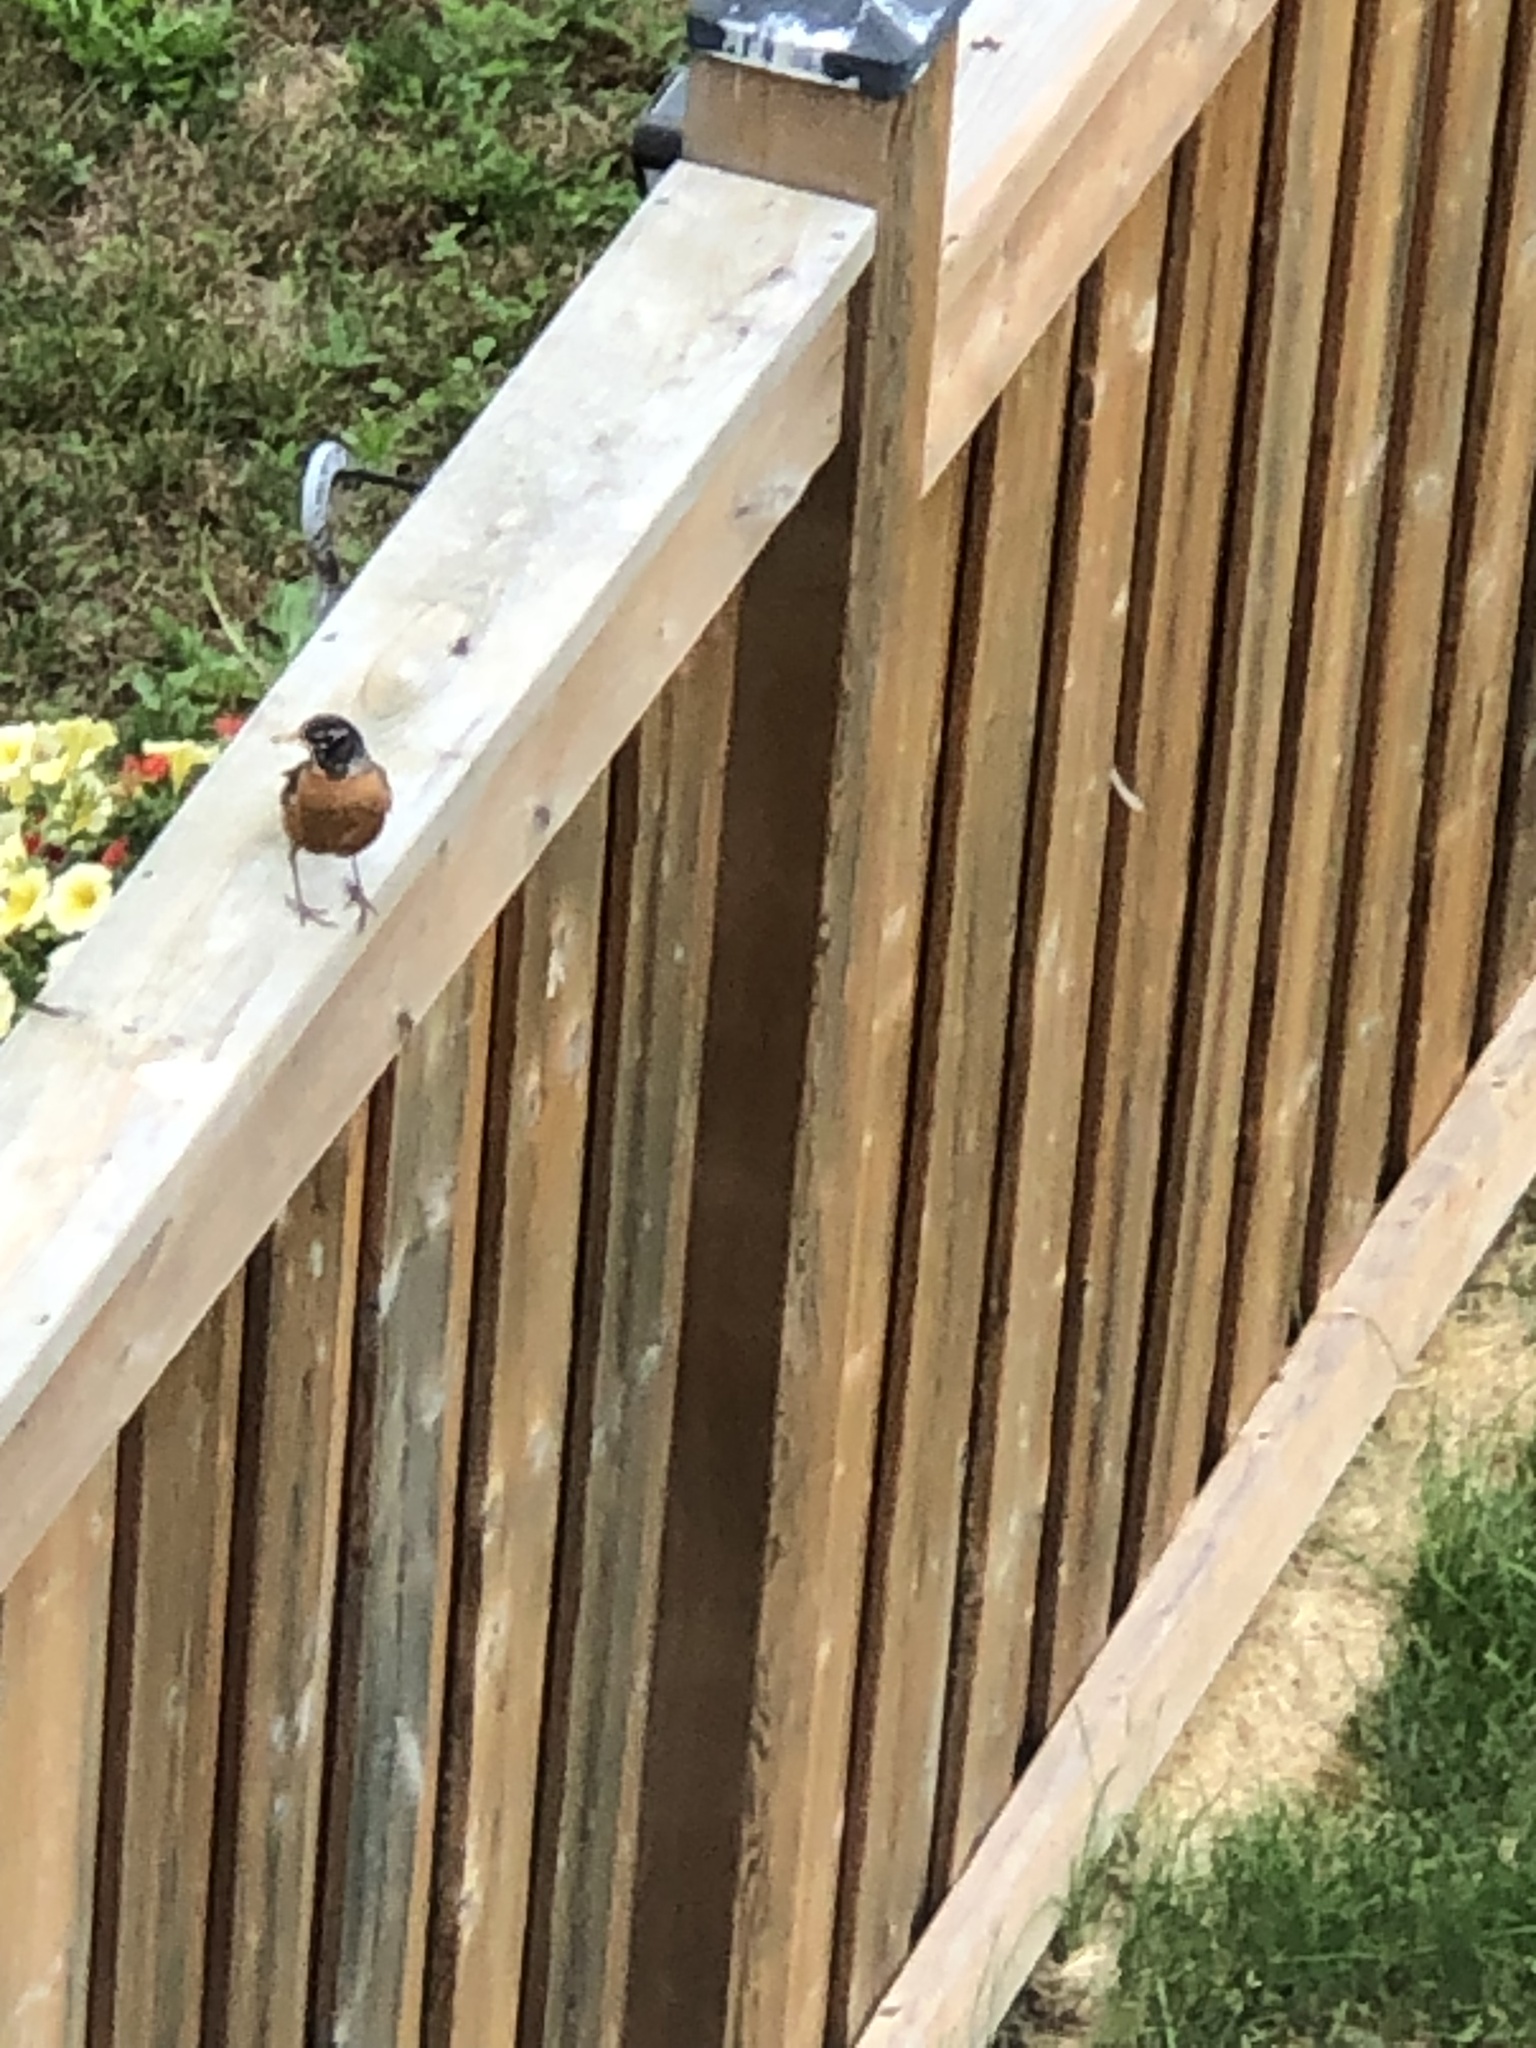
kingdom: Animalia
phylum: Chordata
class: Aves
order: Passeriformes
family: Turdidae
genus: Turdus
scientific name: Turdus migratorius
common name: American robin
